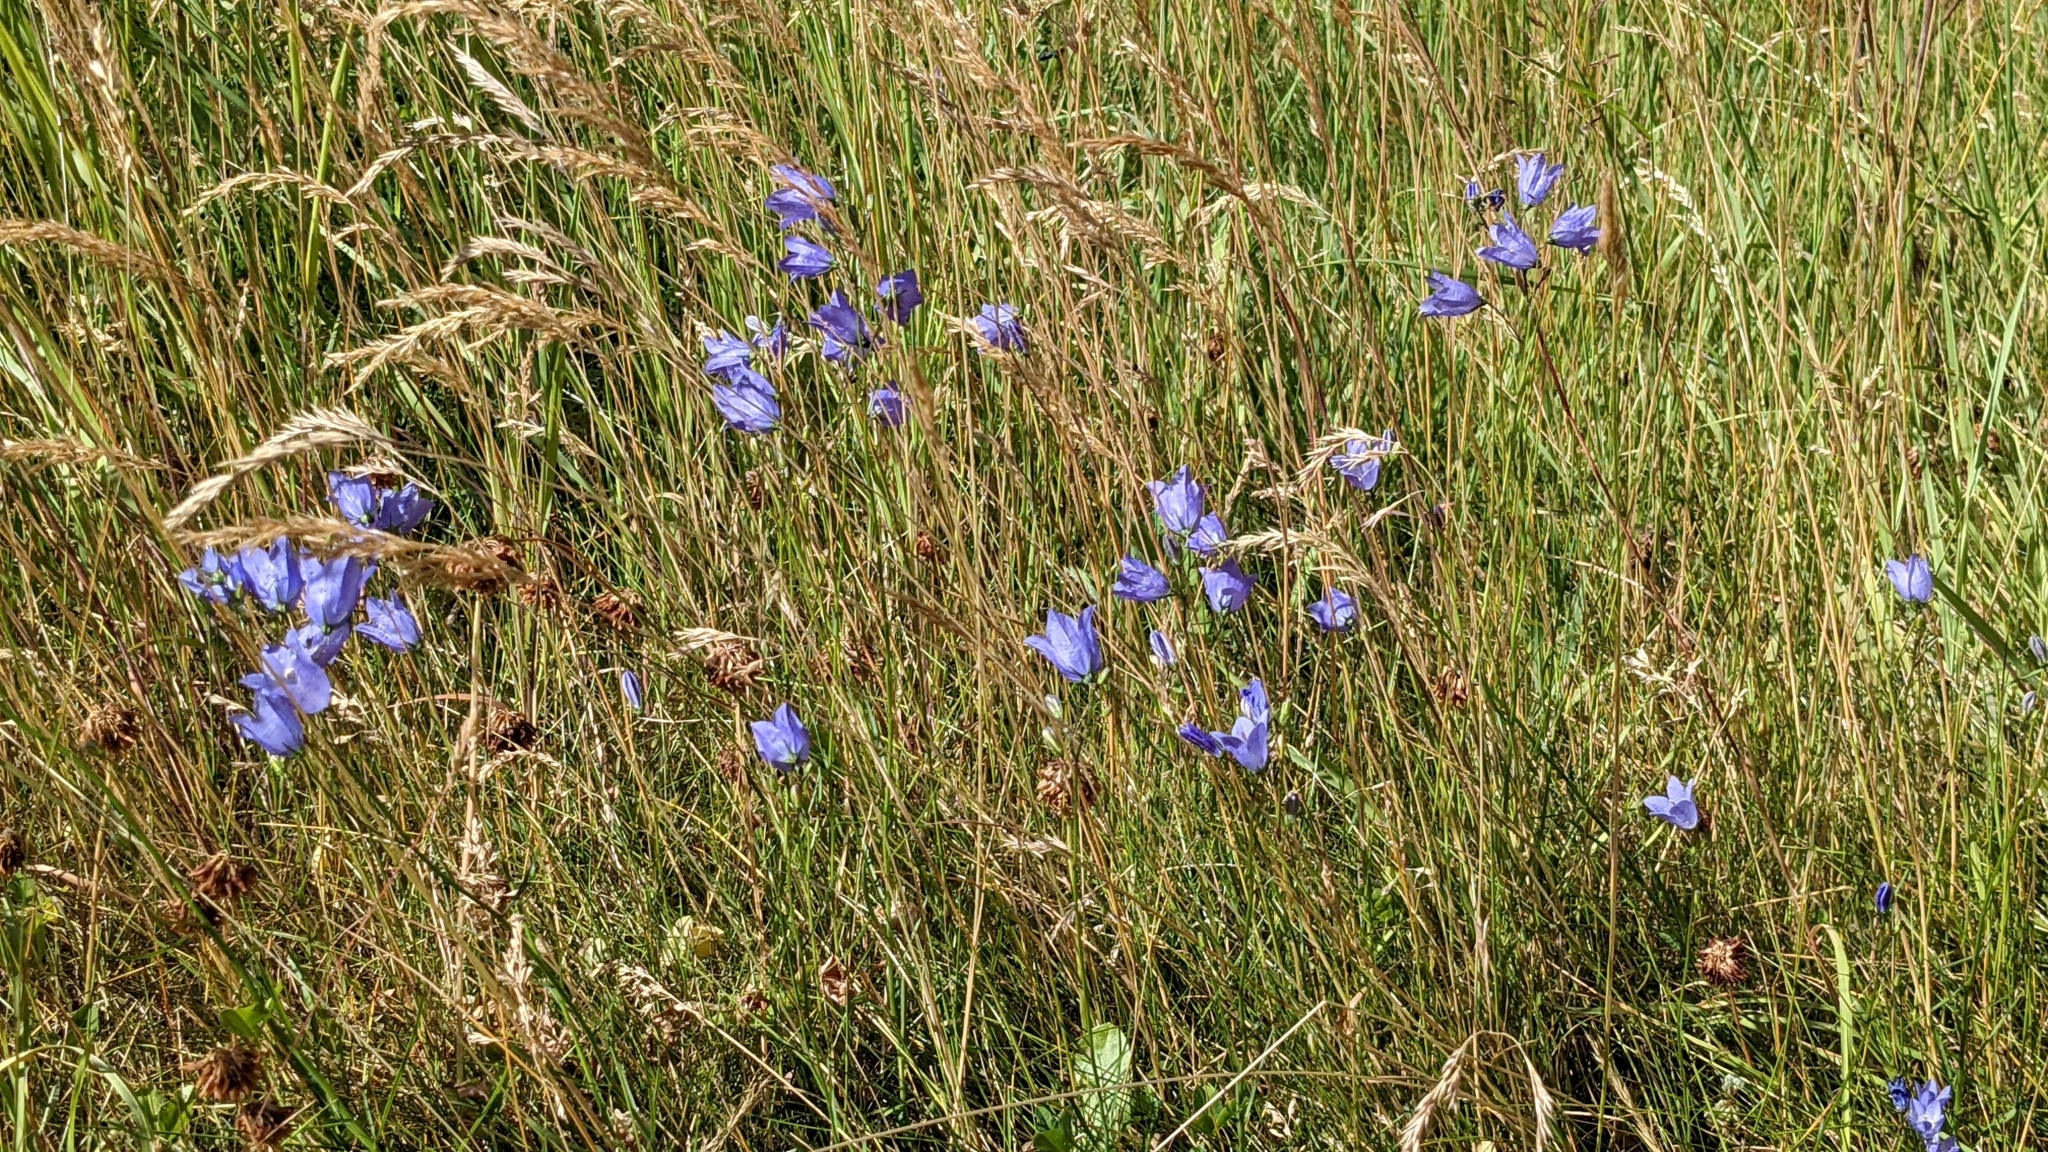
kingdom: Plantae
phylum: Tracheophyta
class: Magnoliopsida
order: Asterales
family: Campanulaceae
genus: Campanula
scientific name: Campanula rotundifolia
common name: Harebell
